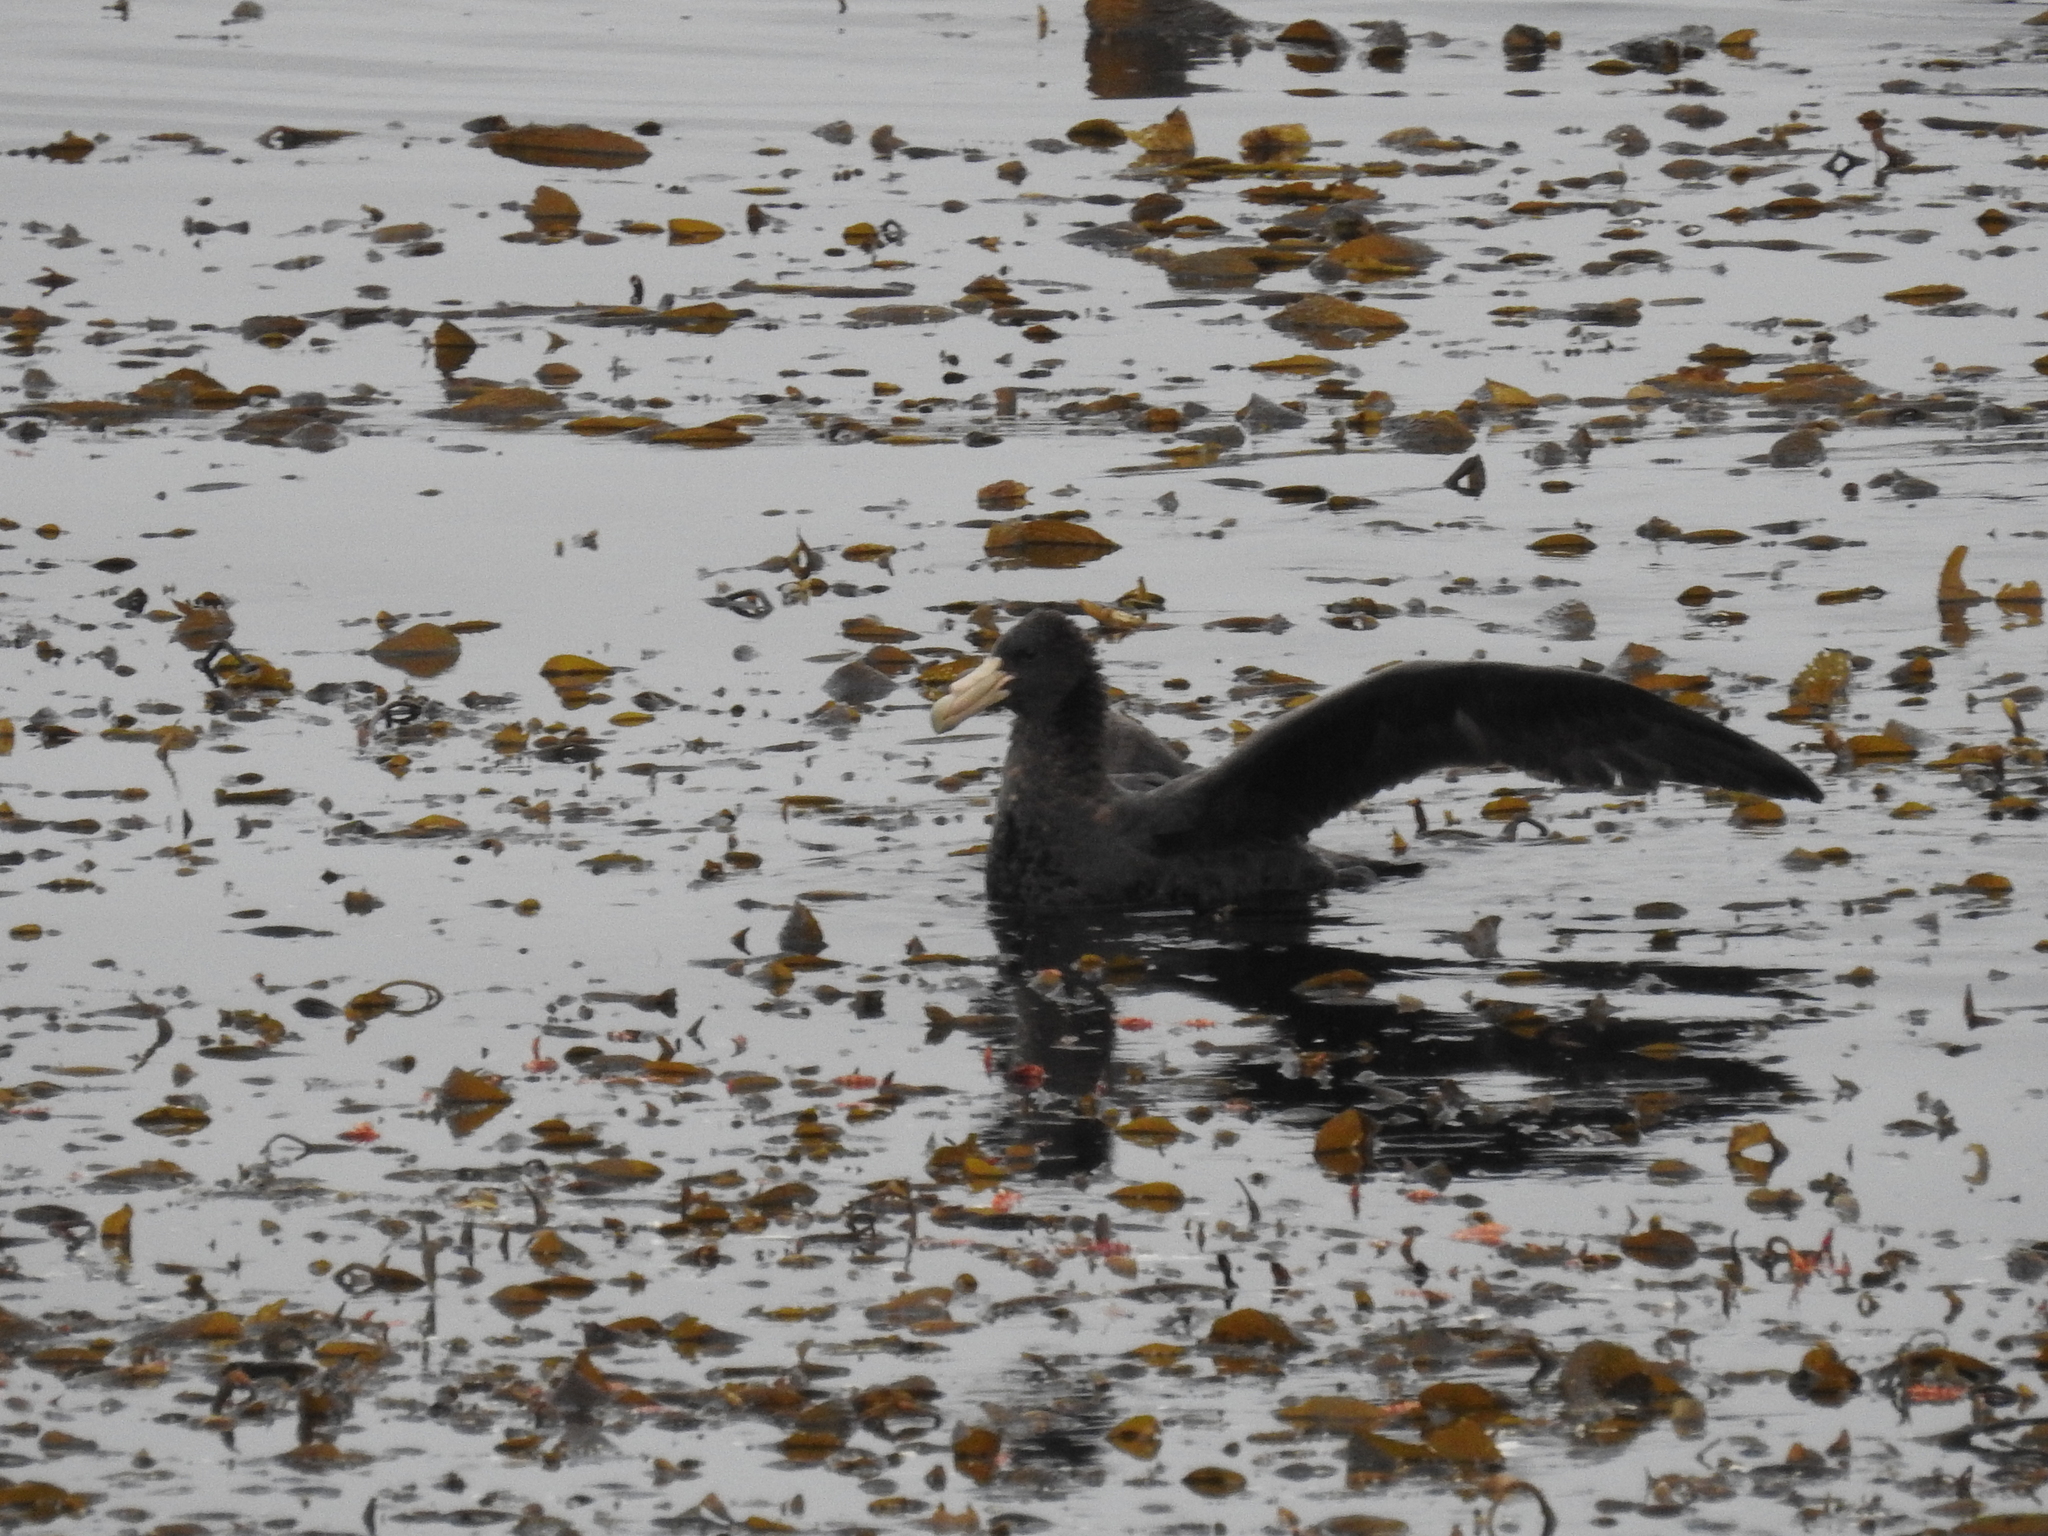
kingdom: Animalia
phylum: Chordata
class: Aves
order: Procellariiformes
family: Procellariidae
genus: Macronectes
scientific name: Macronectes giganteus
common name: Southern giant petrel
